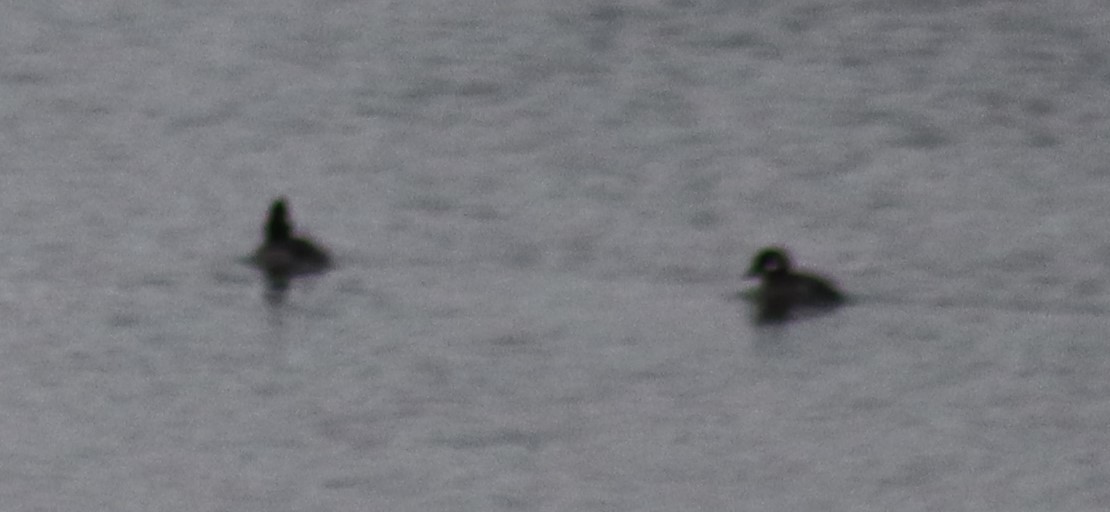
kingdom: Animalia
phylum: Chordata
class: Aves
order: Anseriformes
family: Anatidae
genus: Bucephala
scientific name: Bucephala albeola
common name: Bufflehead
